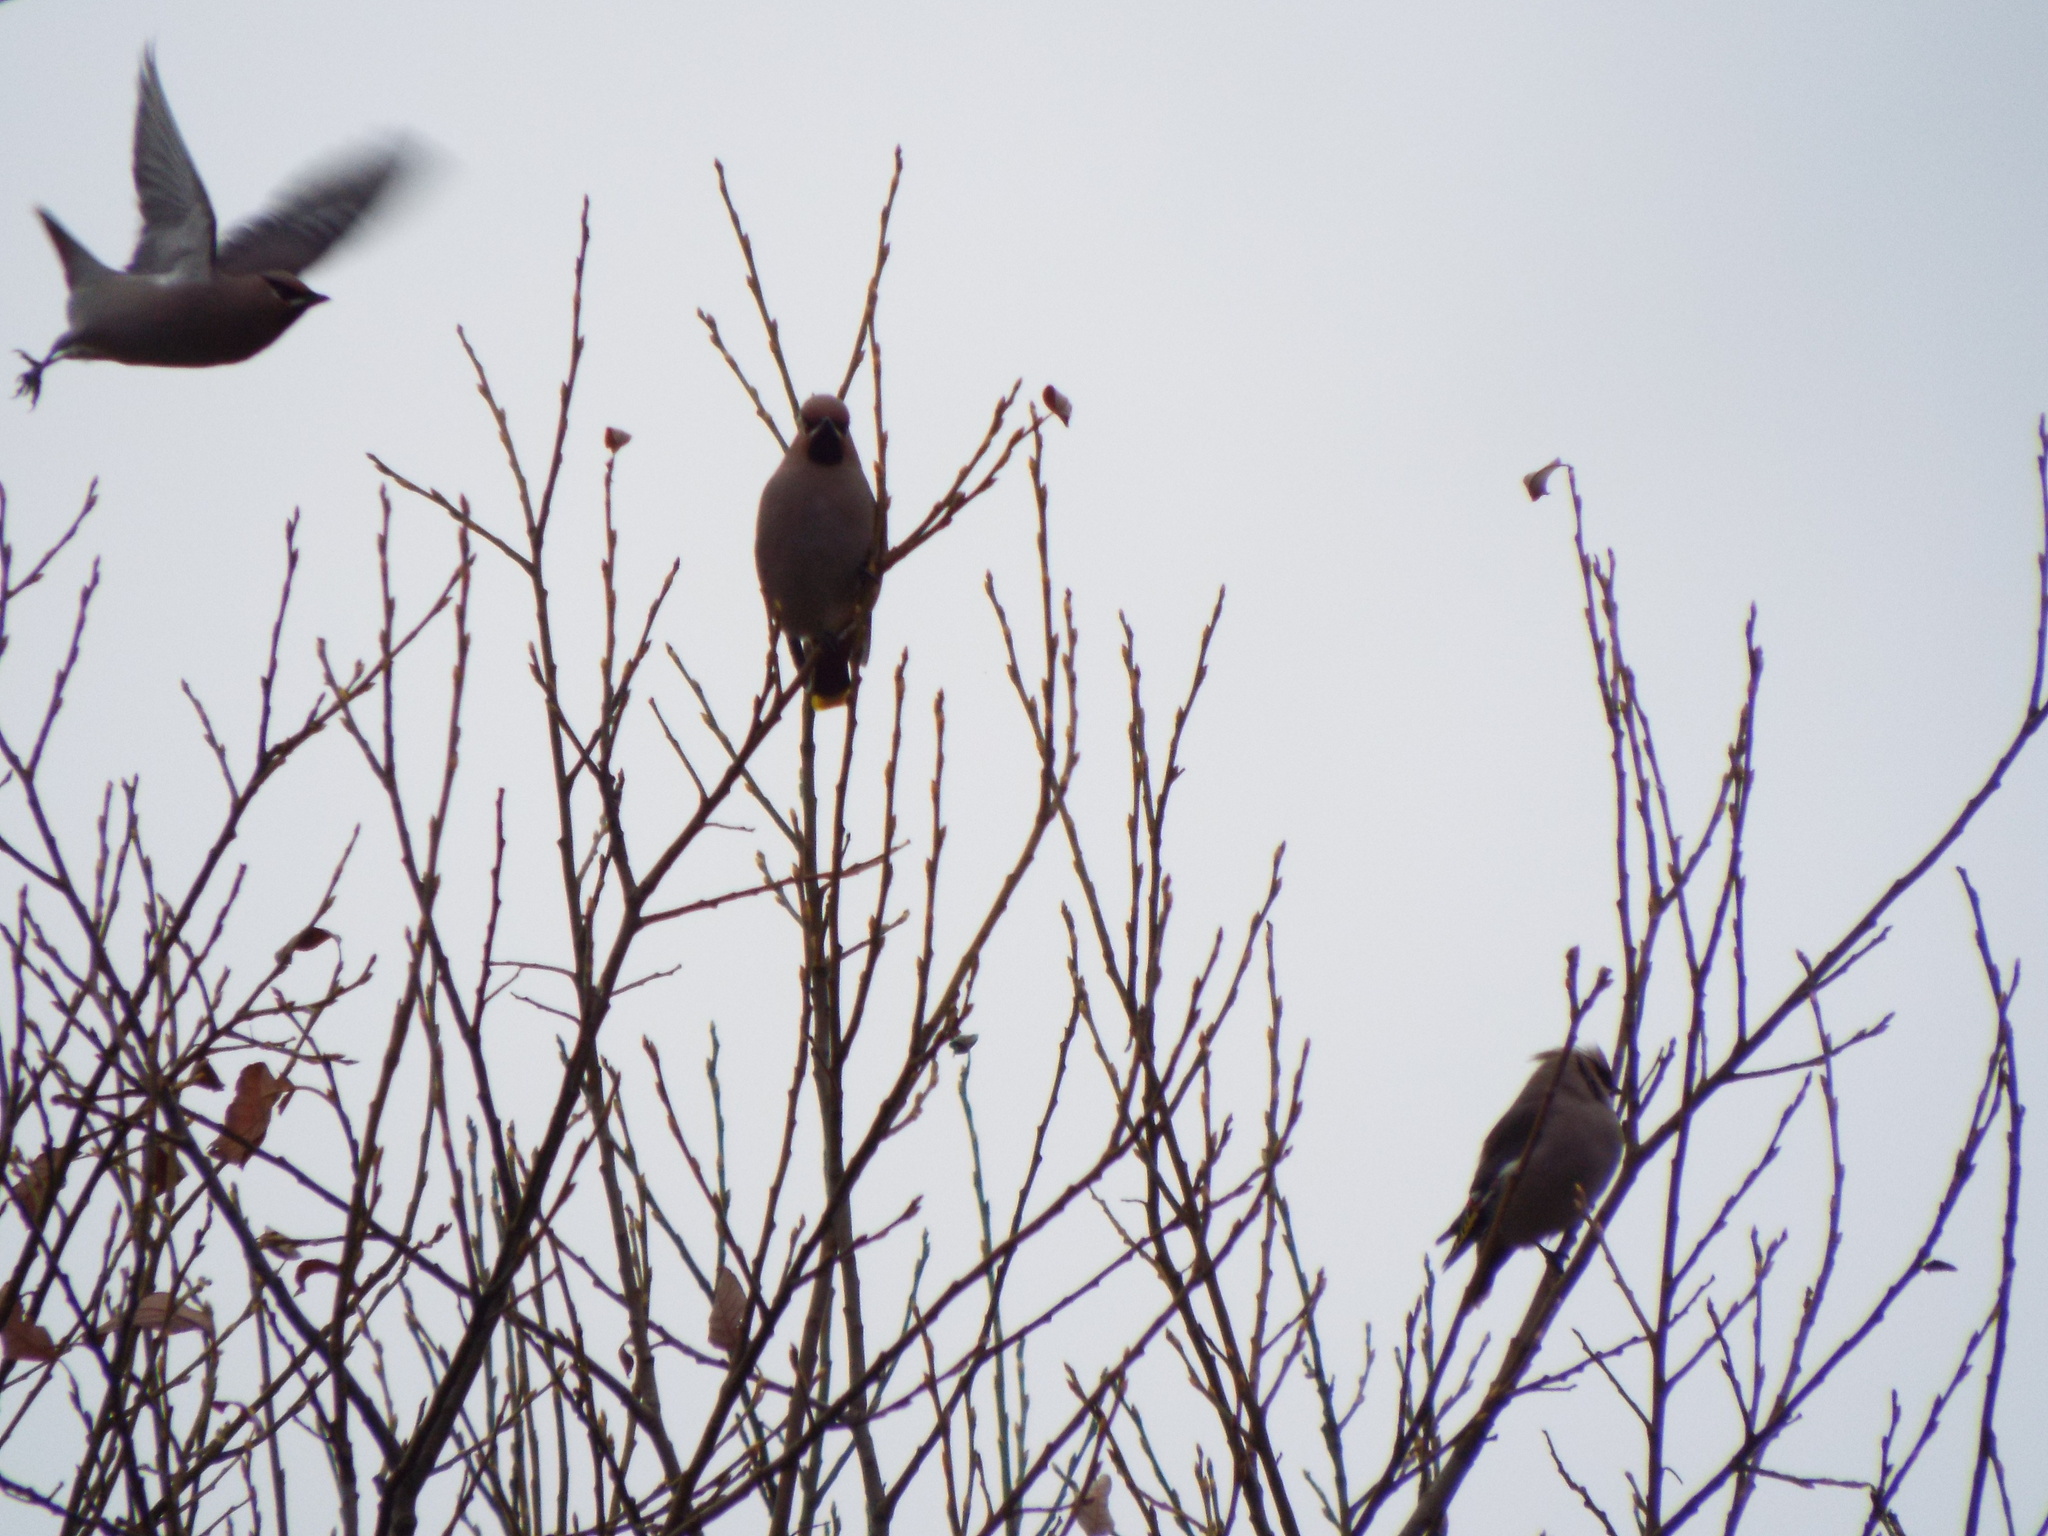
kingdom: Animalia
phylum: Chordata
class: Aves
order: Passeriformes
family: Bombycillidae
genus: Bombycilla
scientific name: Bombycilla garrulus
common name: Bohemian waxwing
